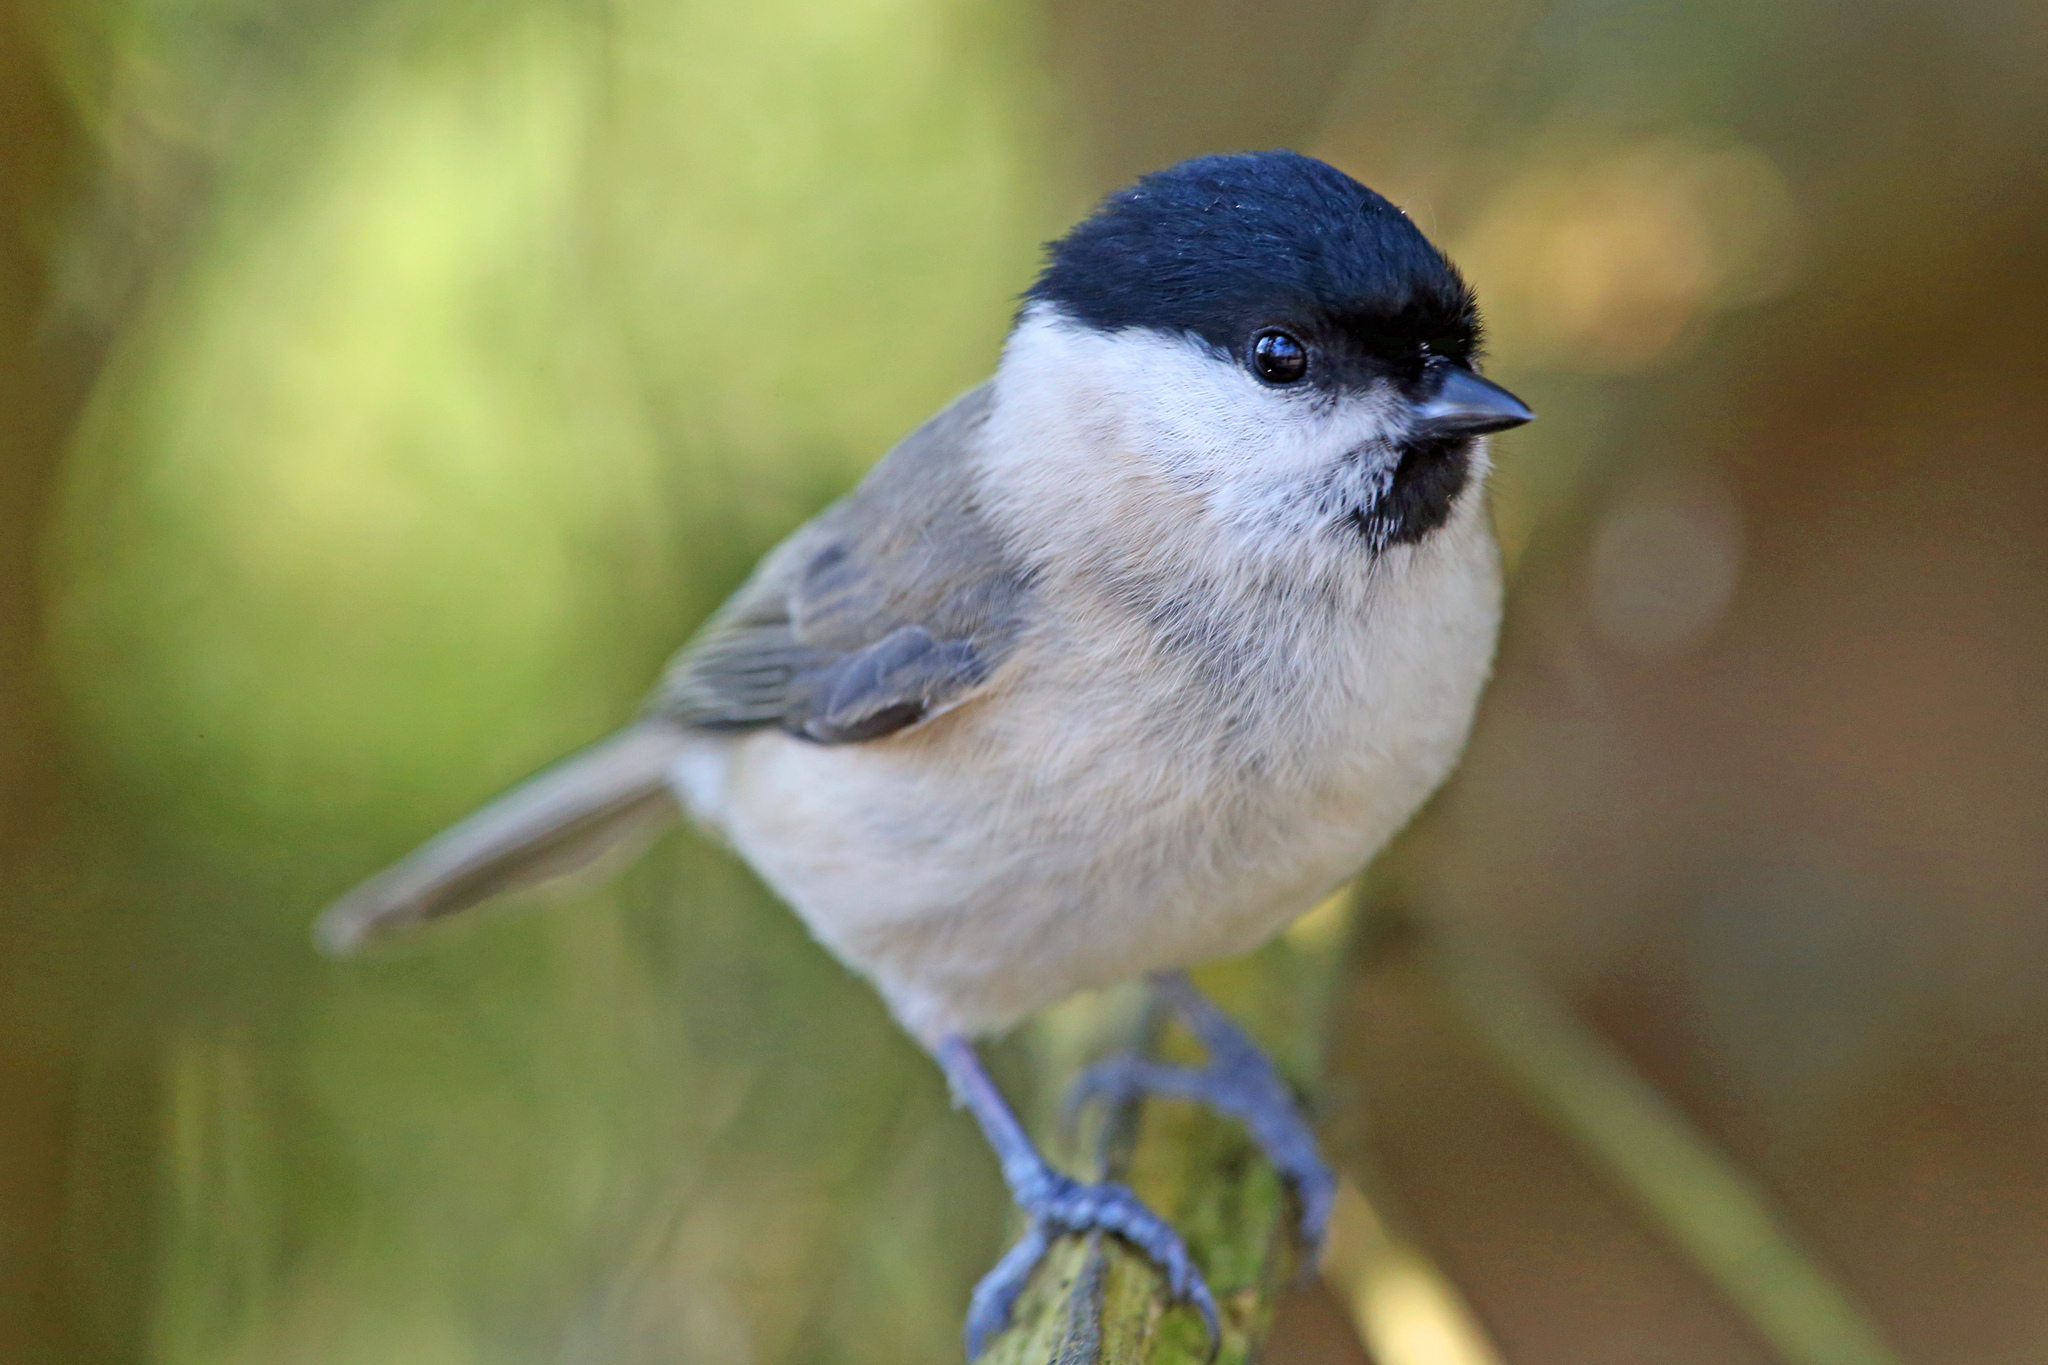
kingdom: Animalia
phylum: Chordata
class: Aves
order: Passeriformes
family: Paridae
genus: Poecile
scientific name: Poecile palustris
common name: Marsh tit
